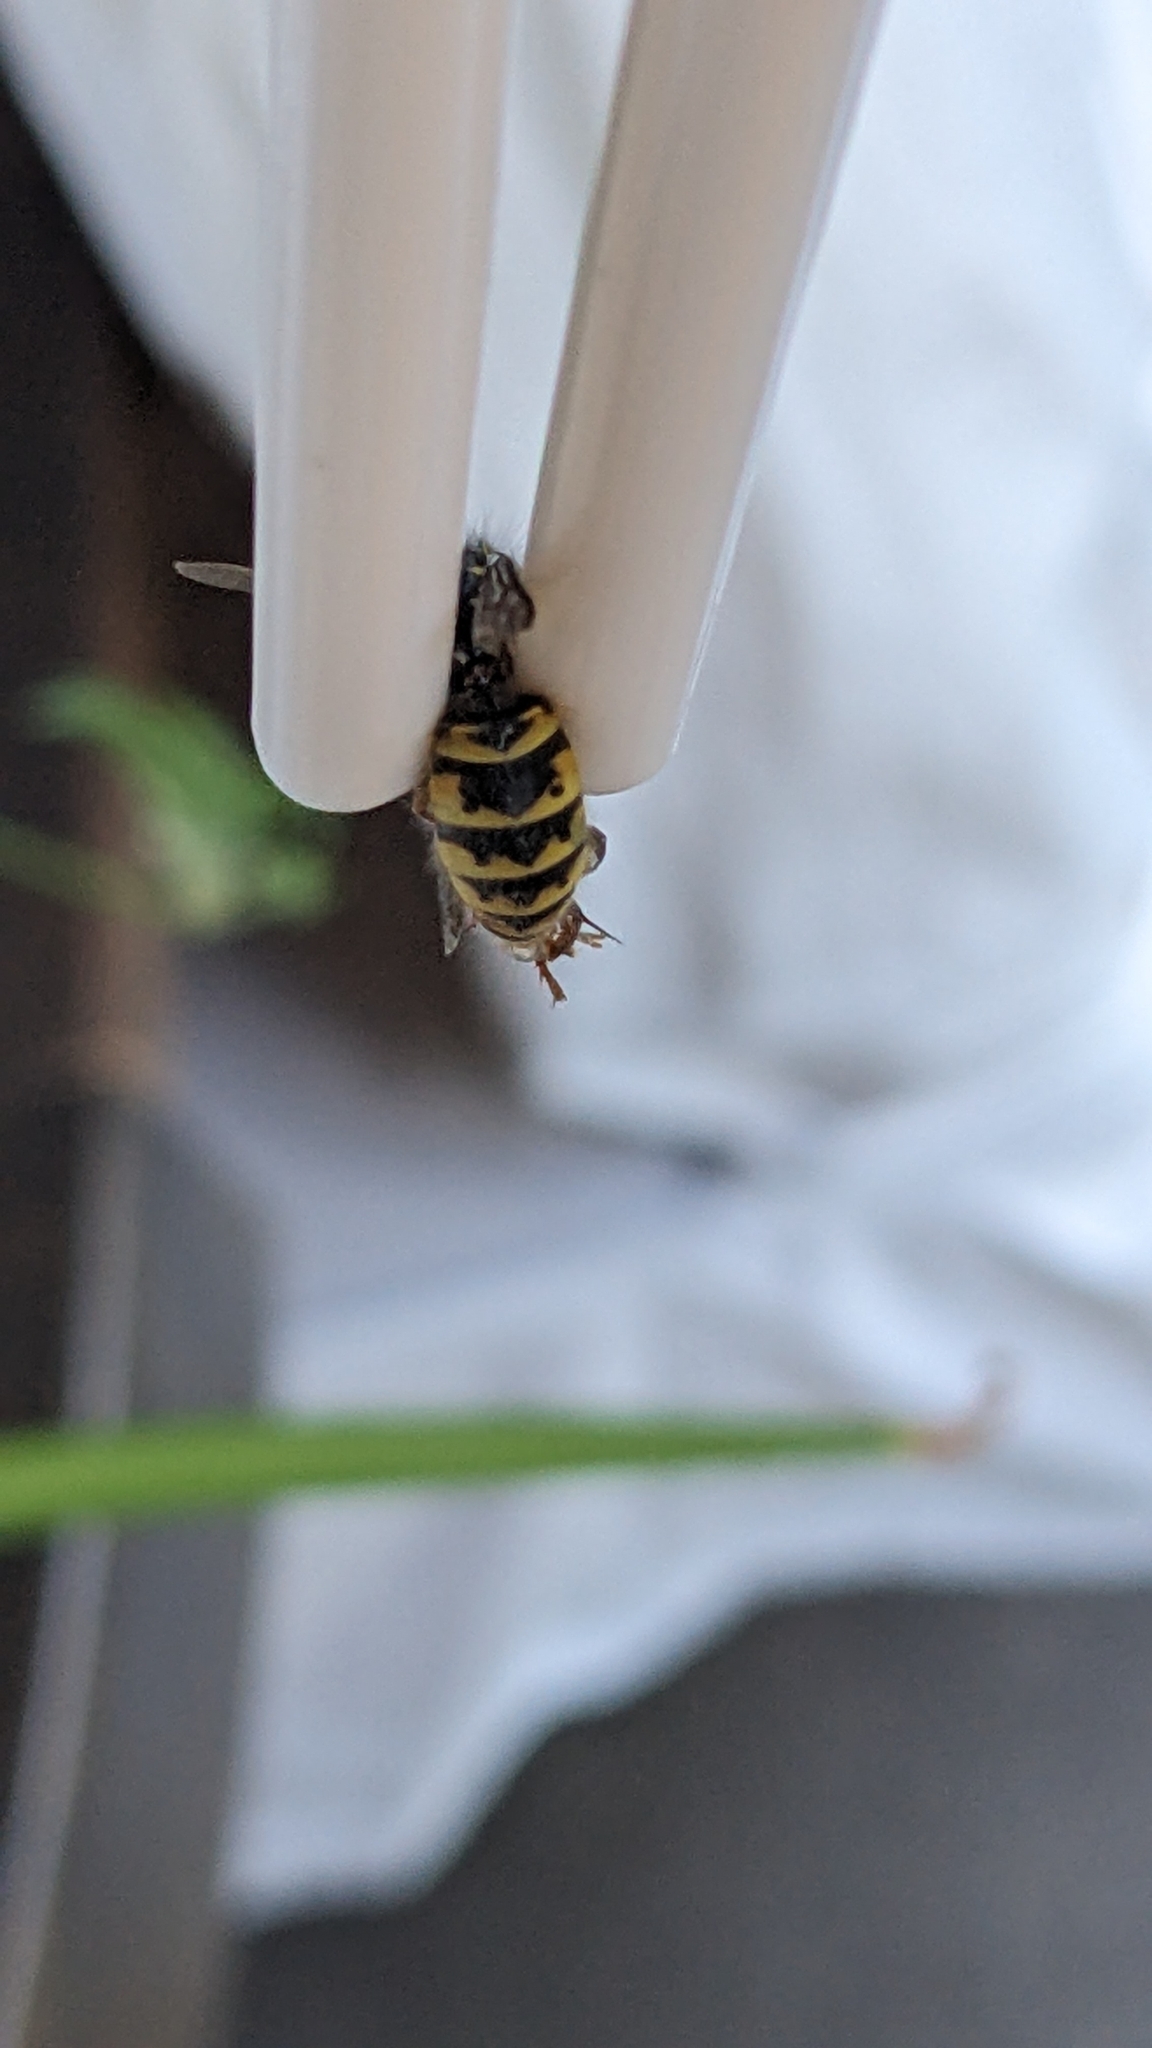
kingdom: Animalia
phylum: Arthropoda
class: Insecta
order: Hymenoptera
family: Vespidae
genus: Vespula
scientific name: Vespula vulgaris
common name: Common wasp
